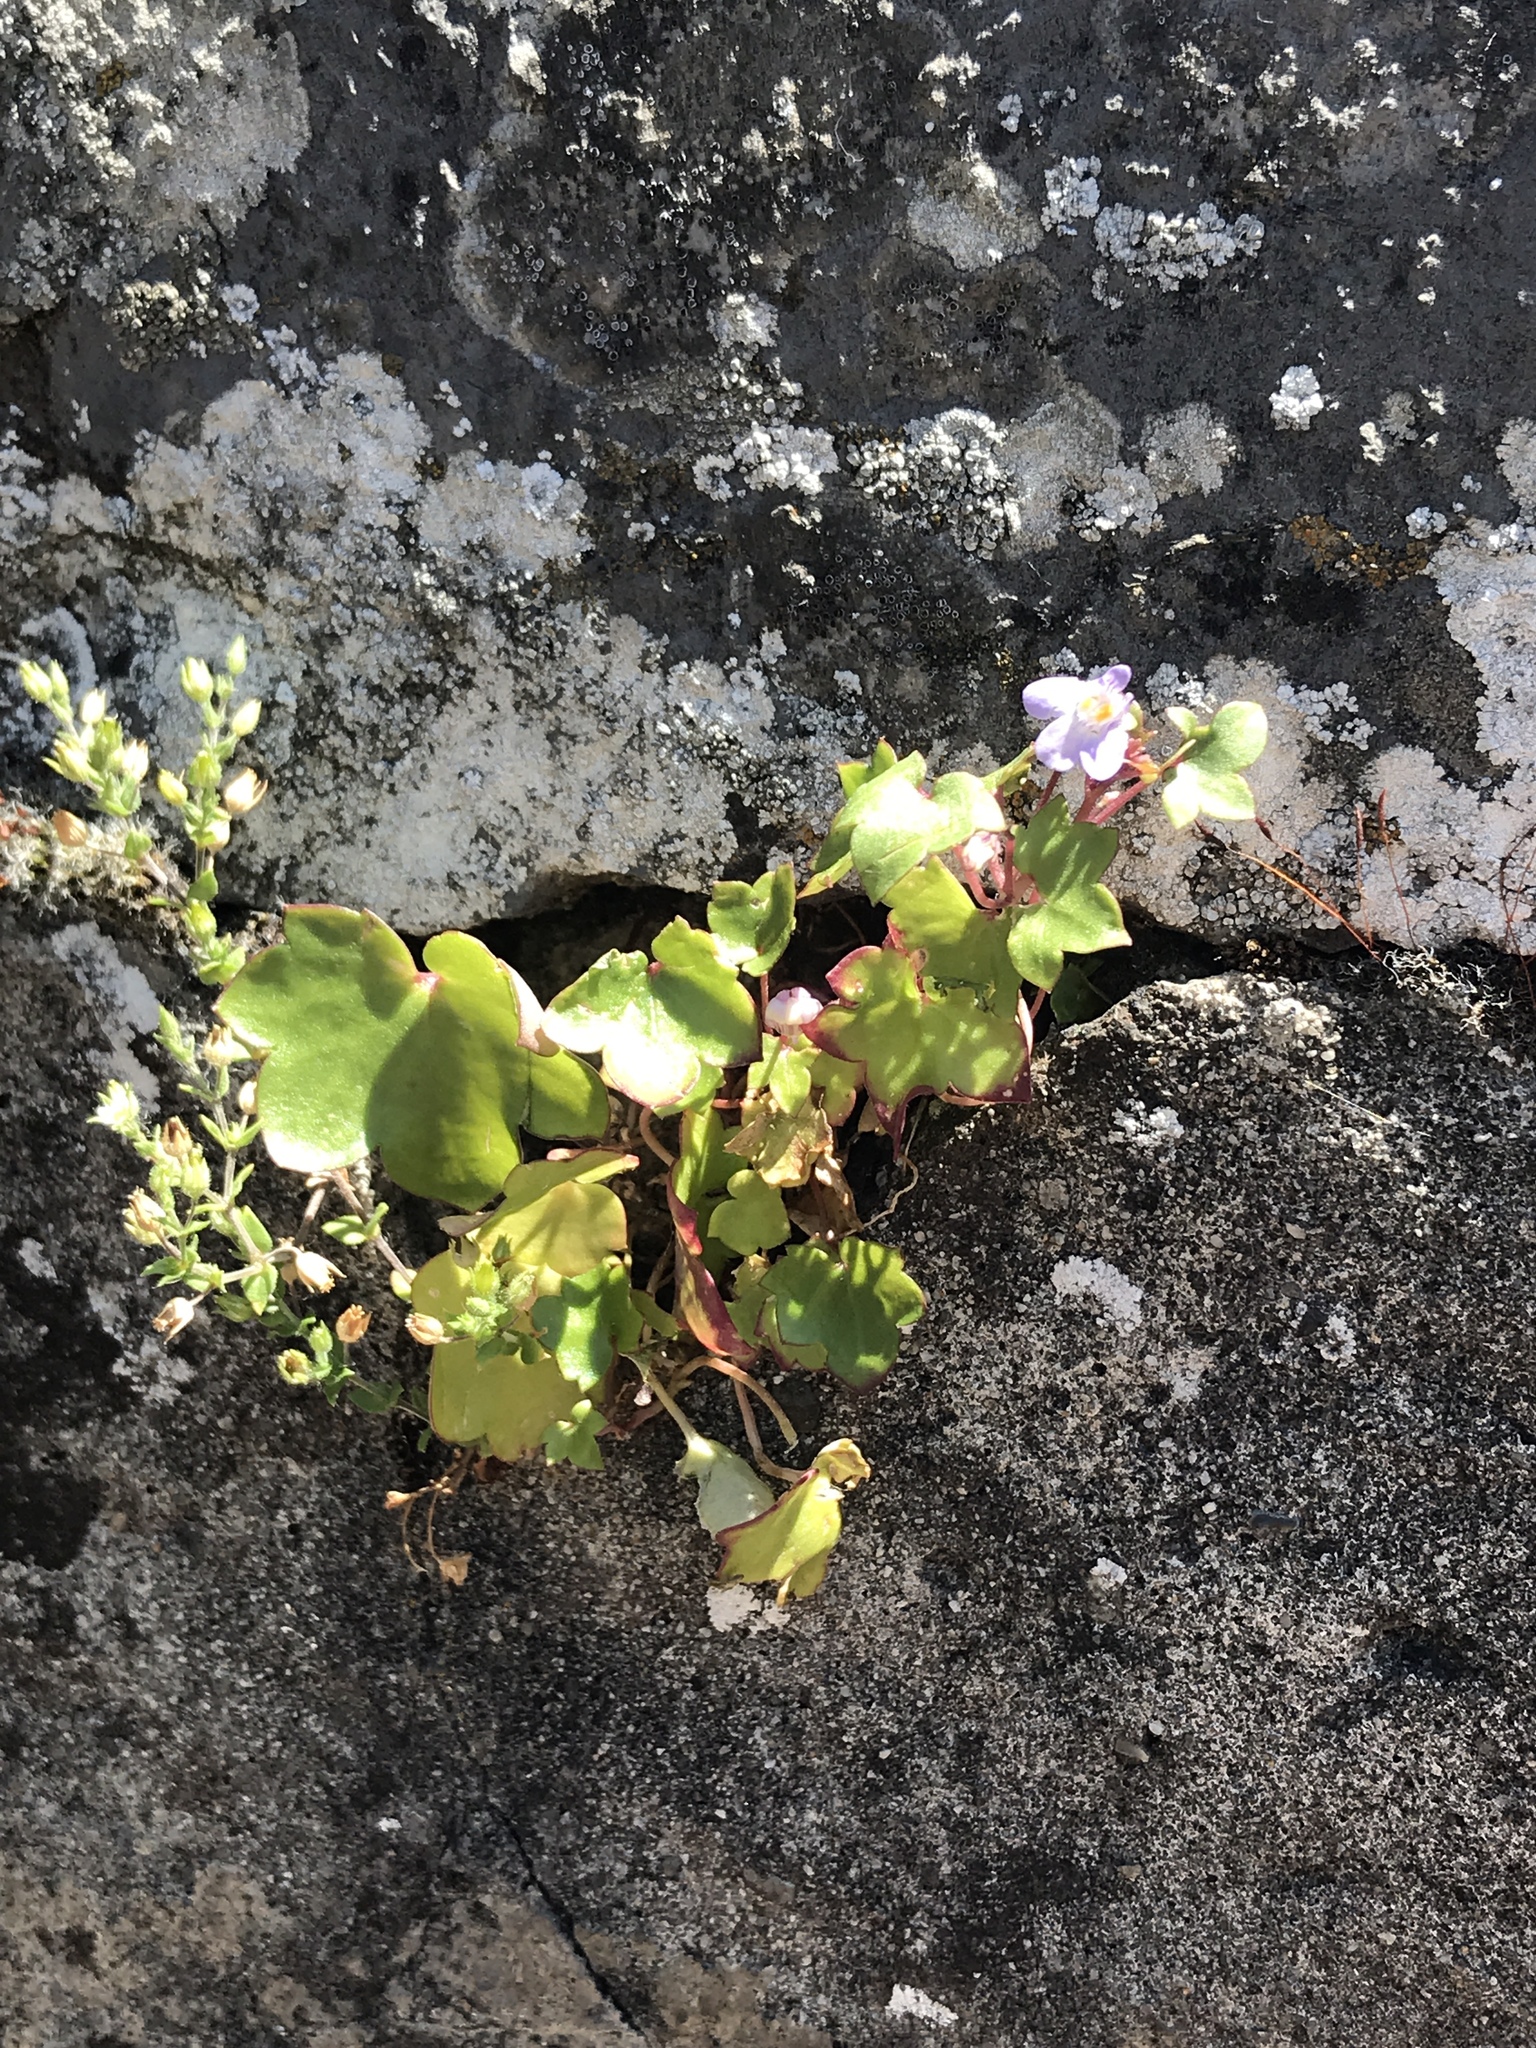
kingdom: Plantae
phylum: Tracheophyta
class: Magnoliopsida
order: Lamiales
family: Plantaginaceae
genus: Cymbalaria
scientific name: Cymbalaria muralis
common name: Ivy-leaved toadflax
